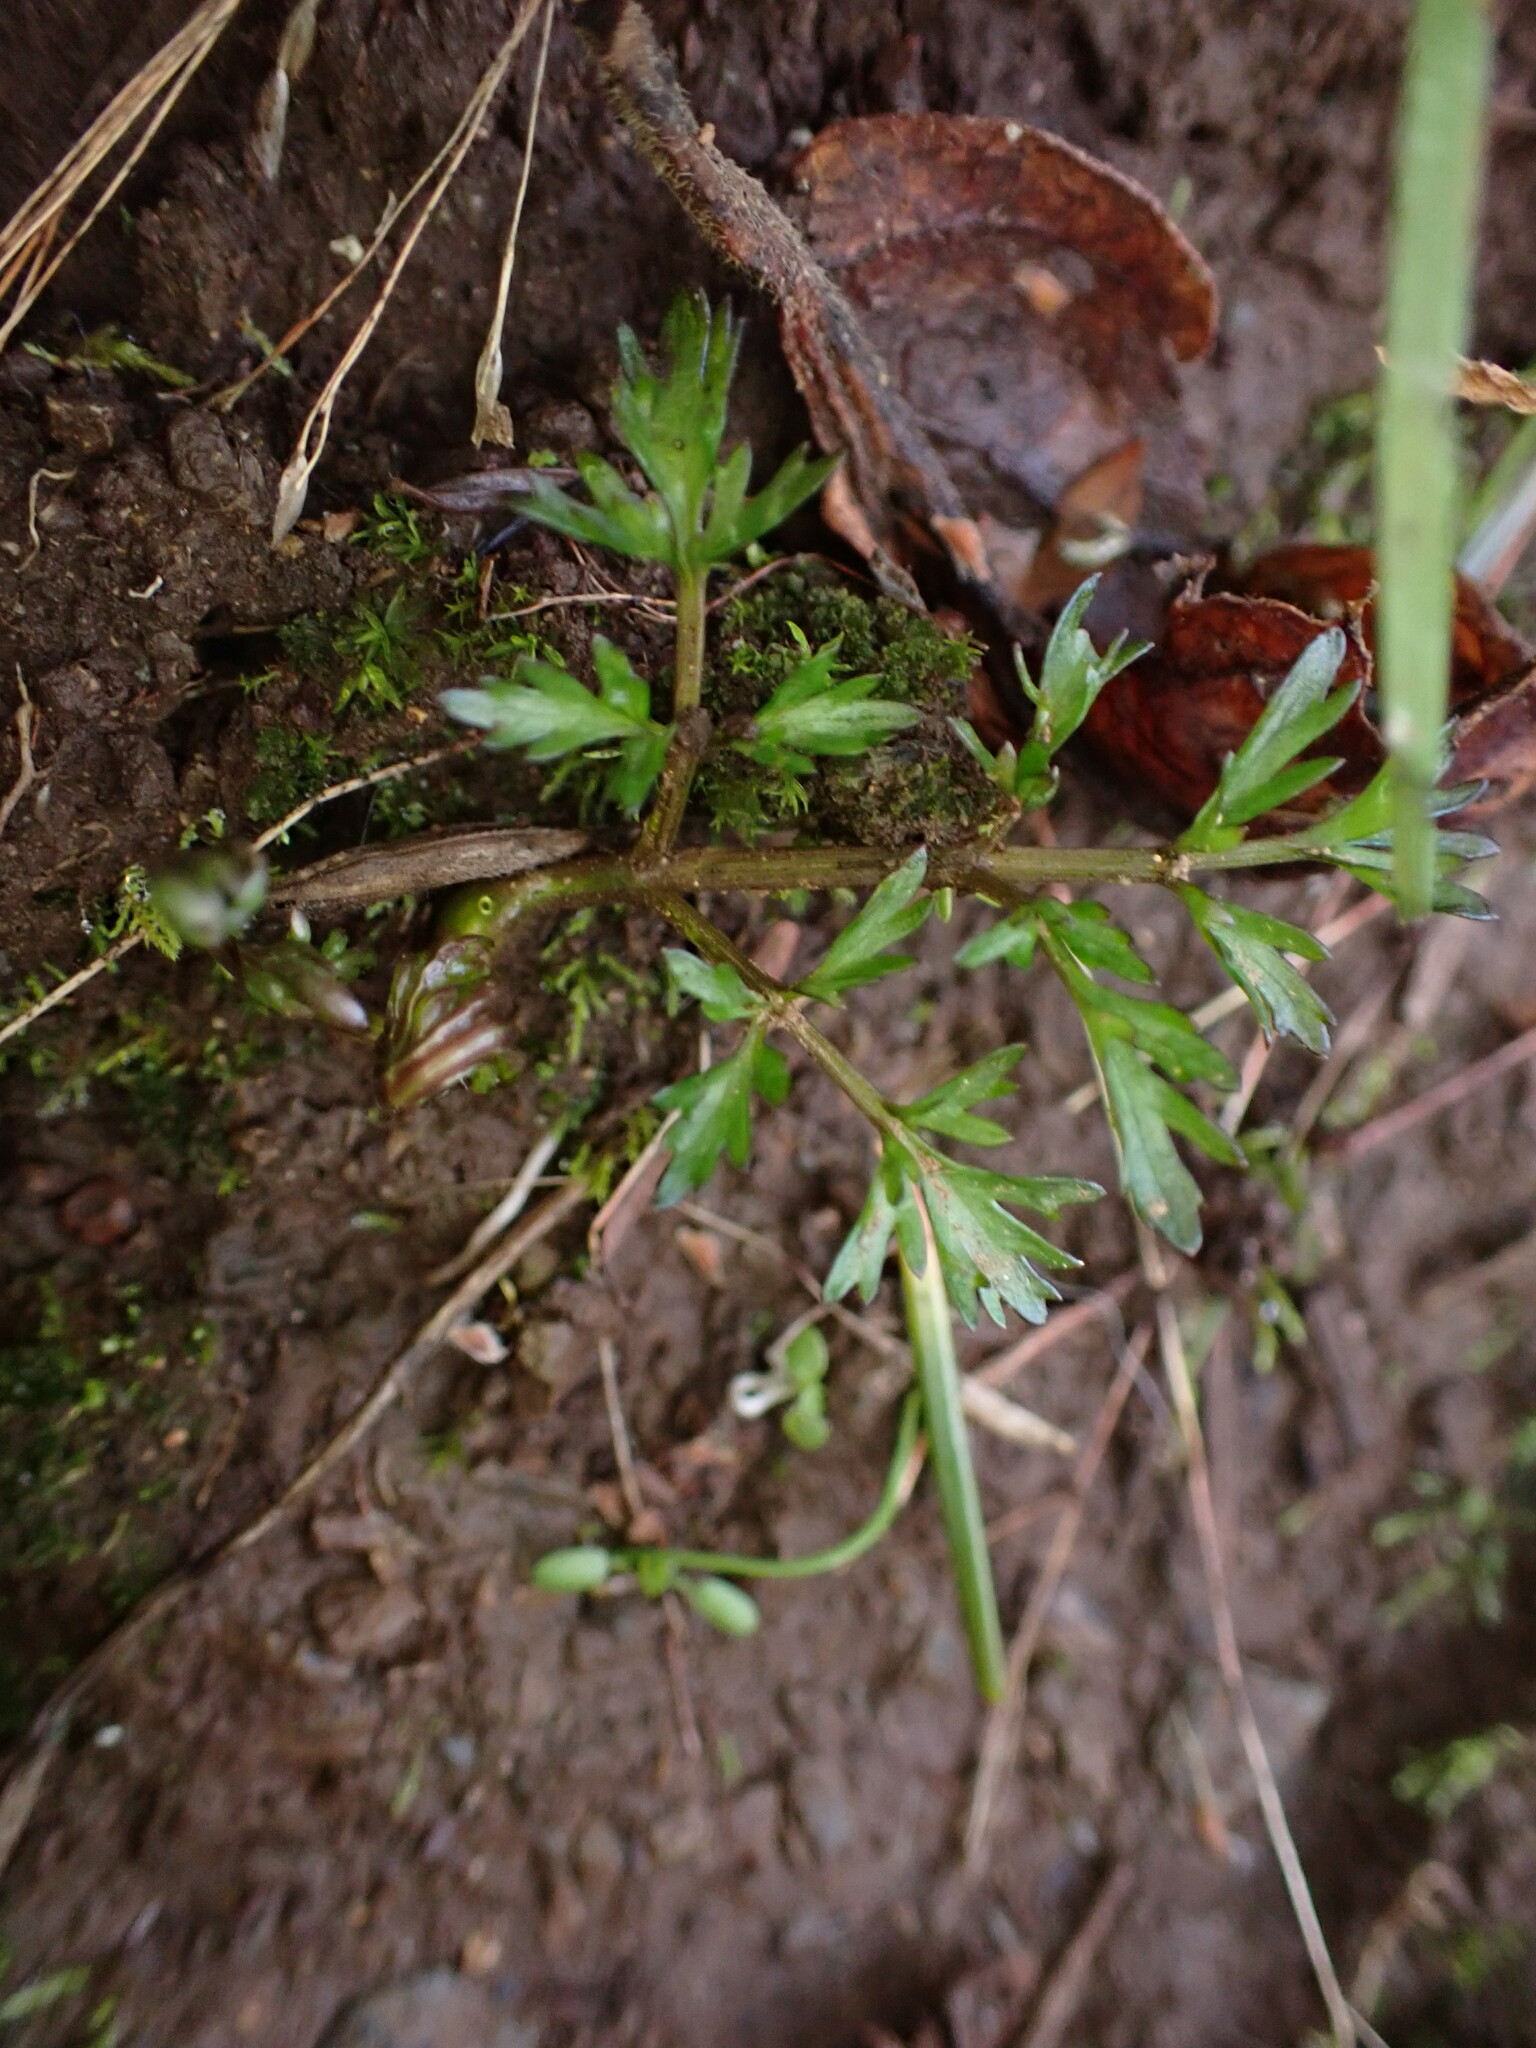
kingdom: Plantae
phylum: Tracheophyta
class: Magnoliopsida
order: Apiales
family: Apiaceae
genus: Lomatium
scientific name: Lomatium utriculatum
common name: Fine-leaf desert-parsley
